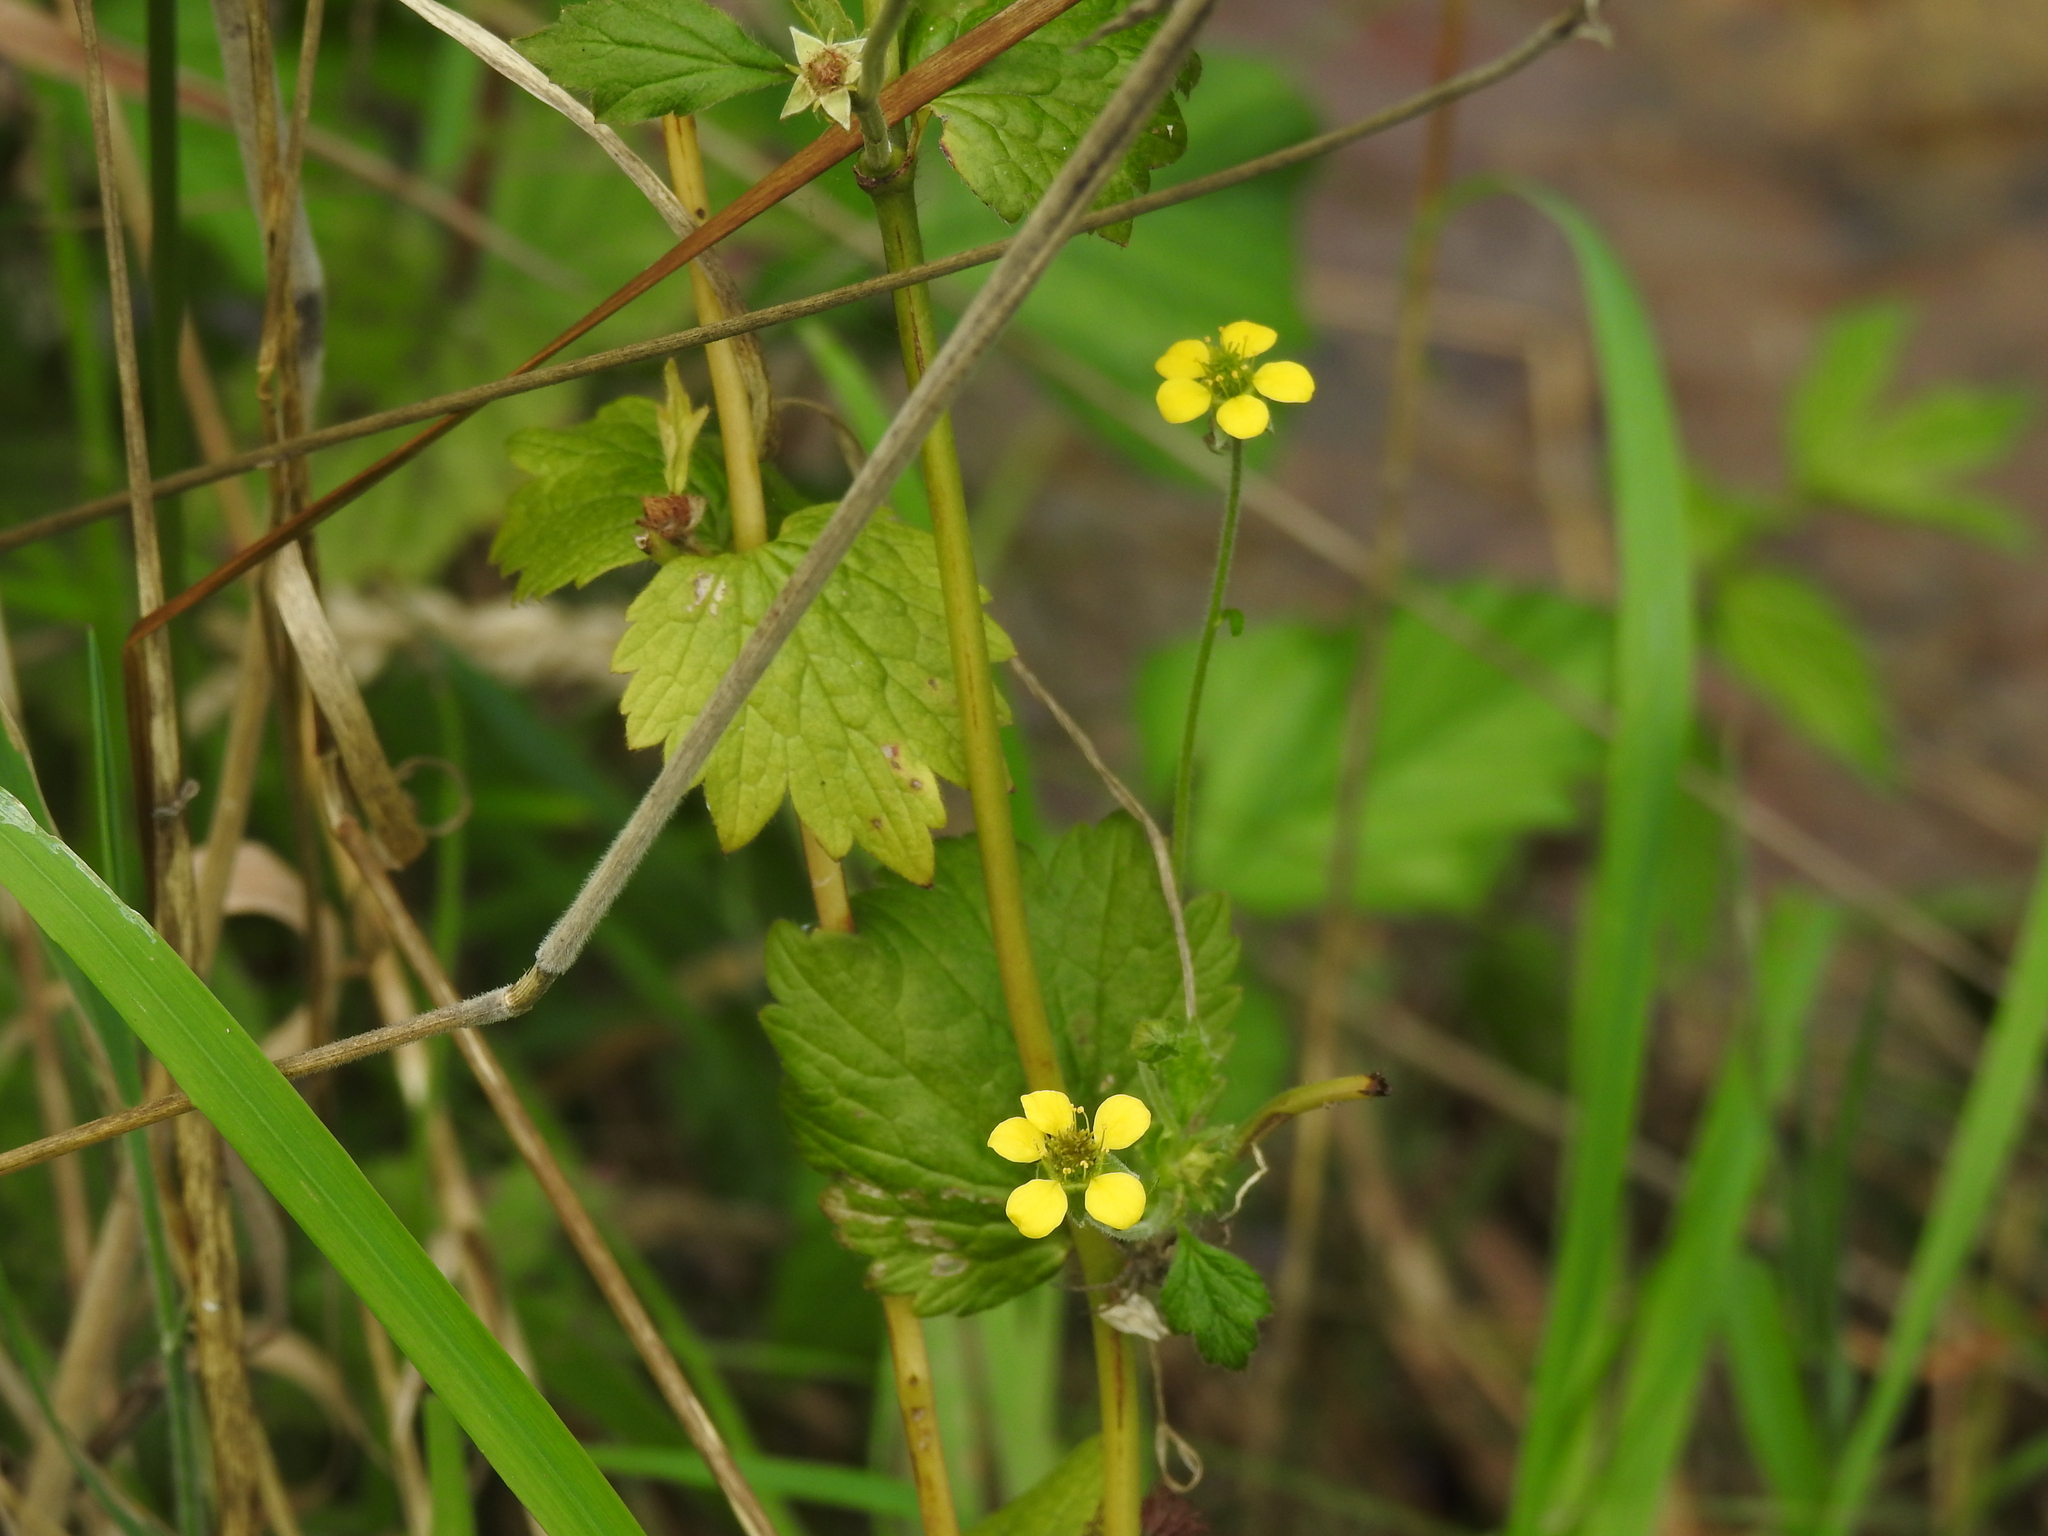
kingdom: Plantae
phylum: Tracheophyta
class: Magnoliopsida
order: Rosales
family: Rosaceae
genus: Geum
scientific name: Geum urbanum
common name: Wood avens
